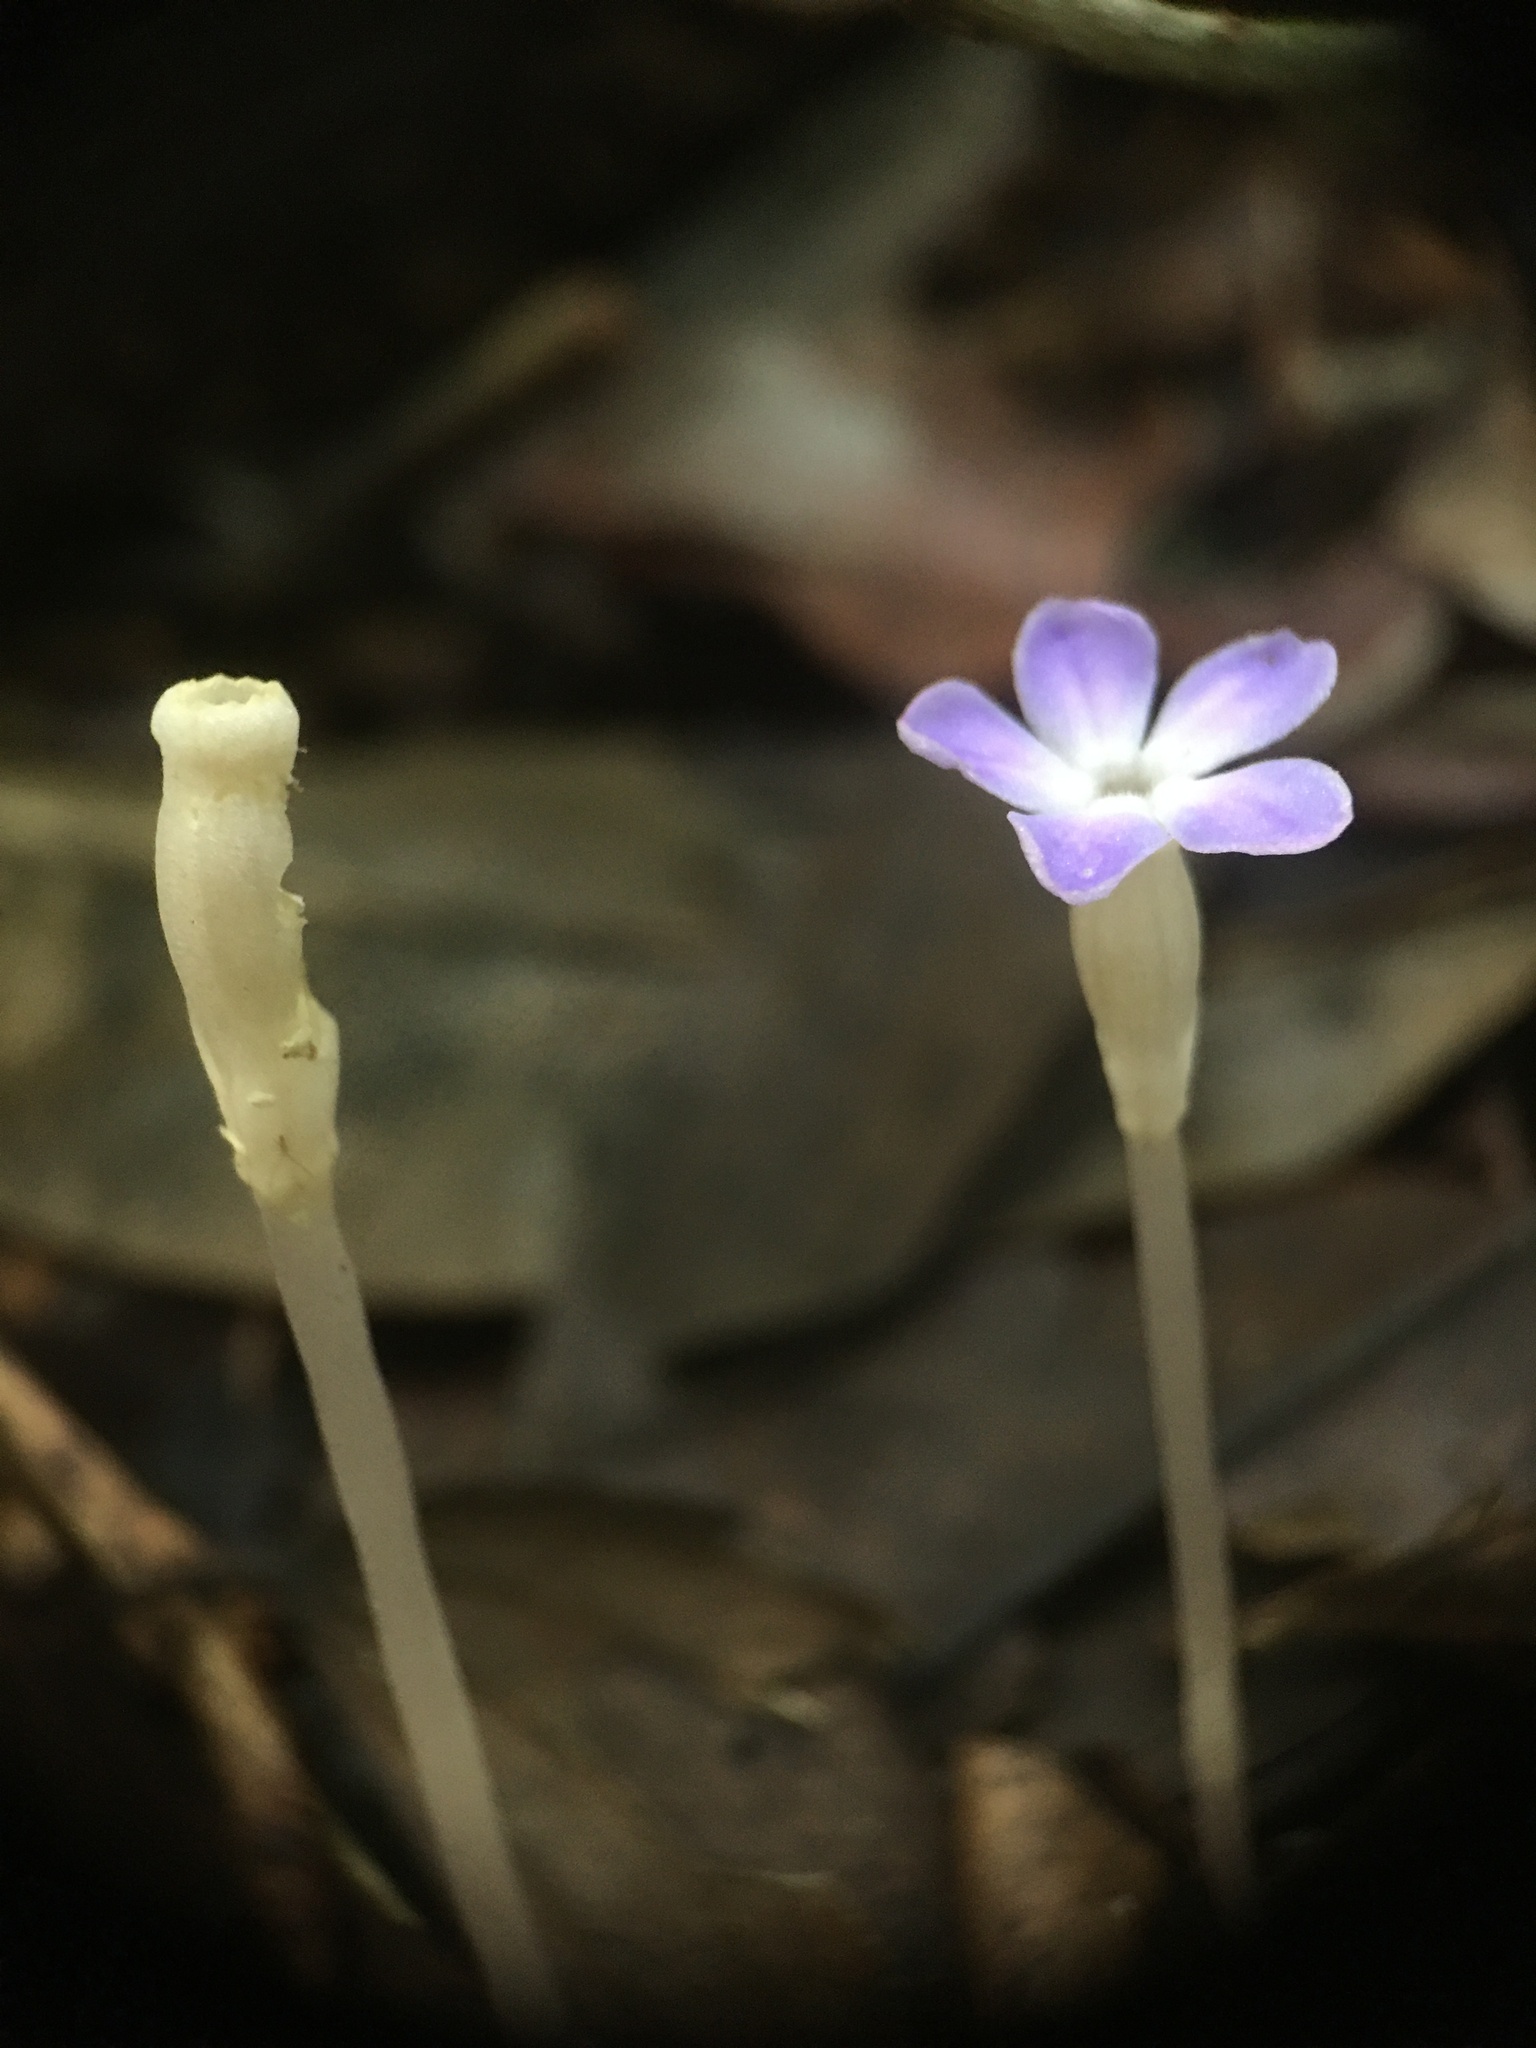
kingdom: Plantae
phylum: Tracheophyta
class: Magnoliopsida
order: Gentianales
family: Gentianaceae
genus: Voyria
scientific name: Voyria obconica
